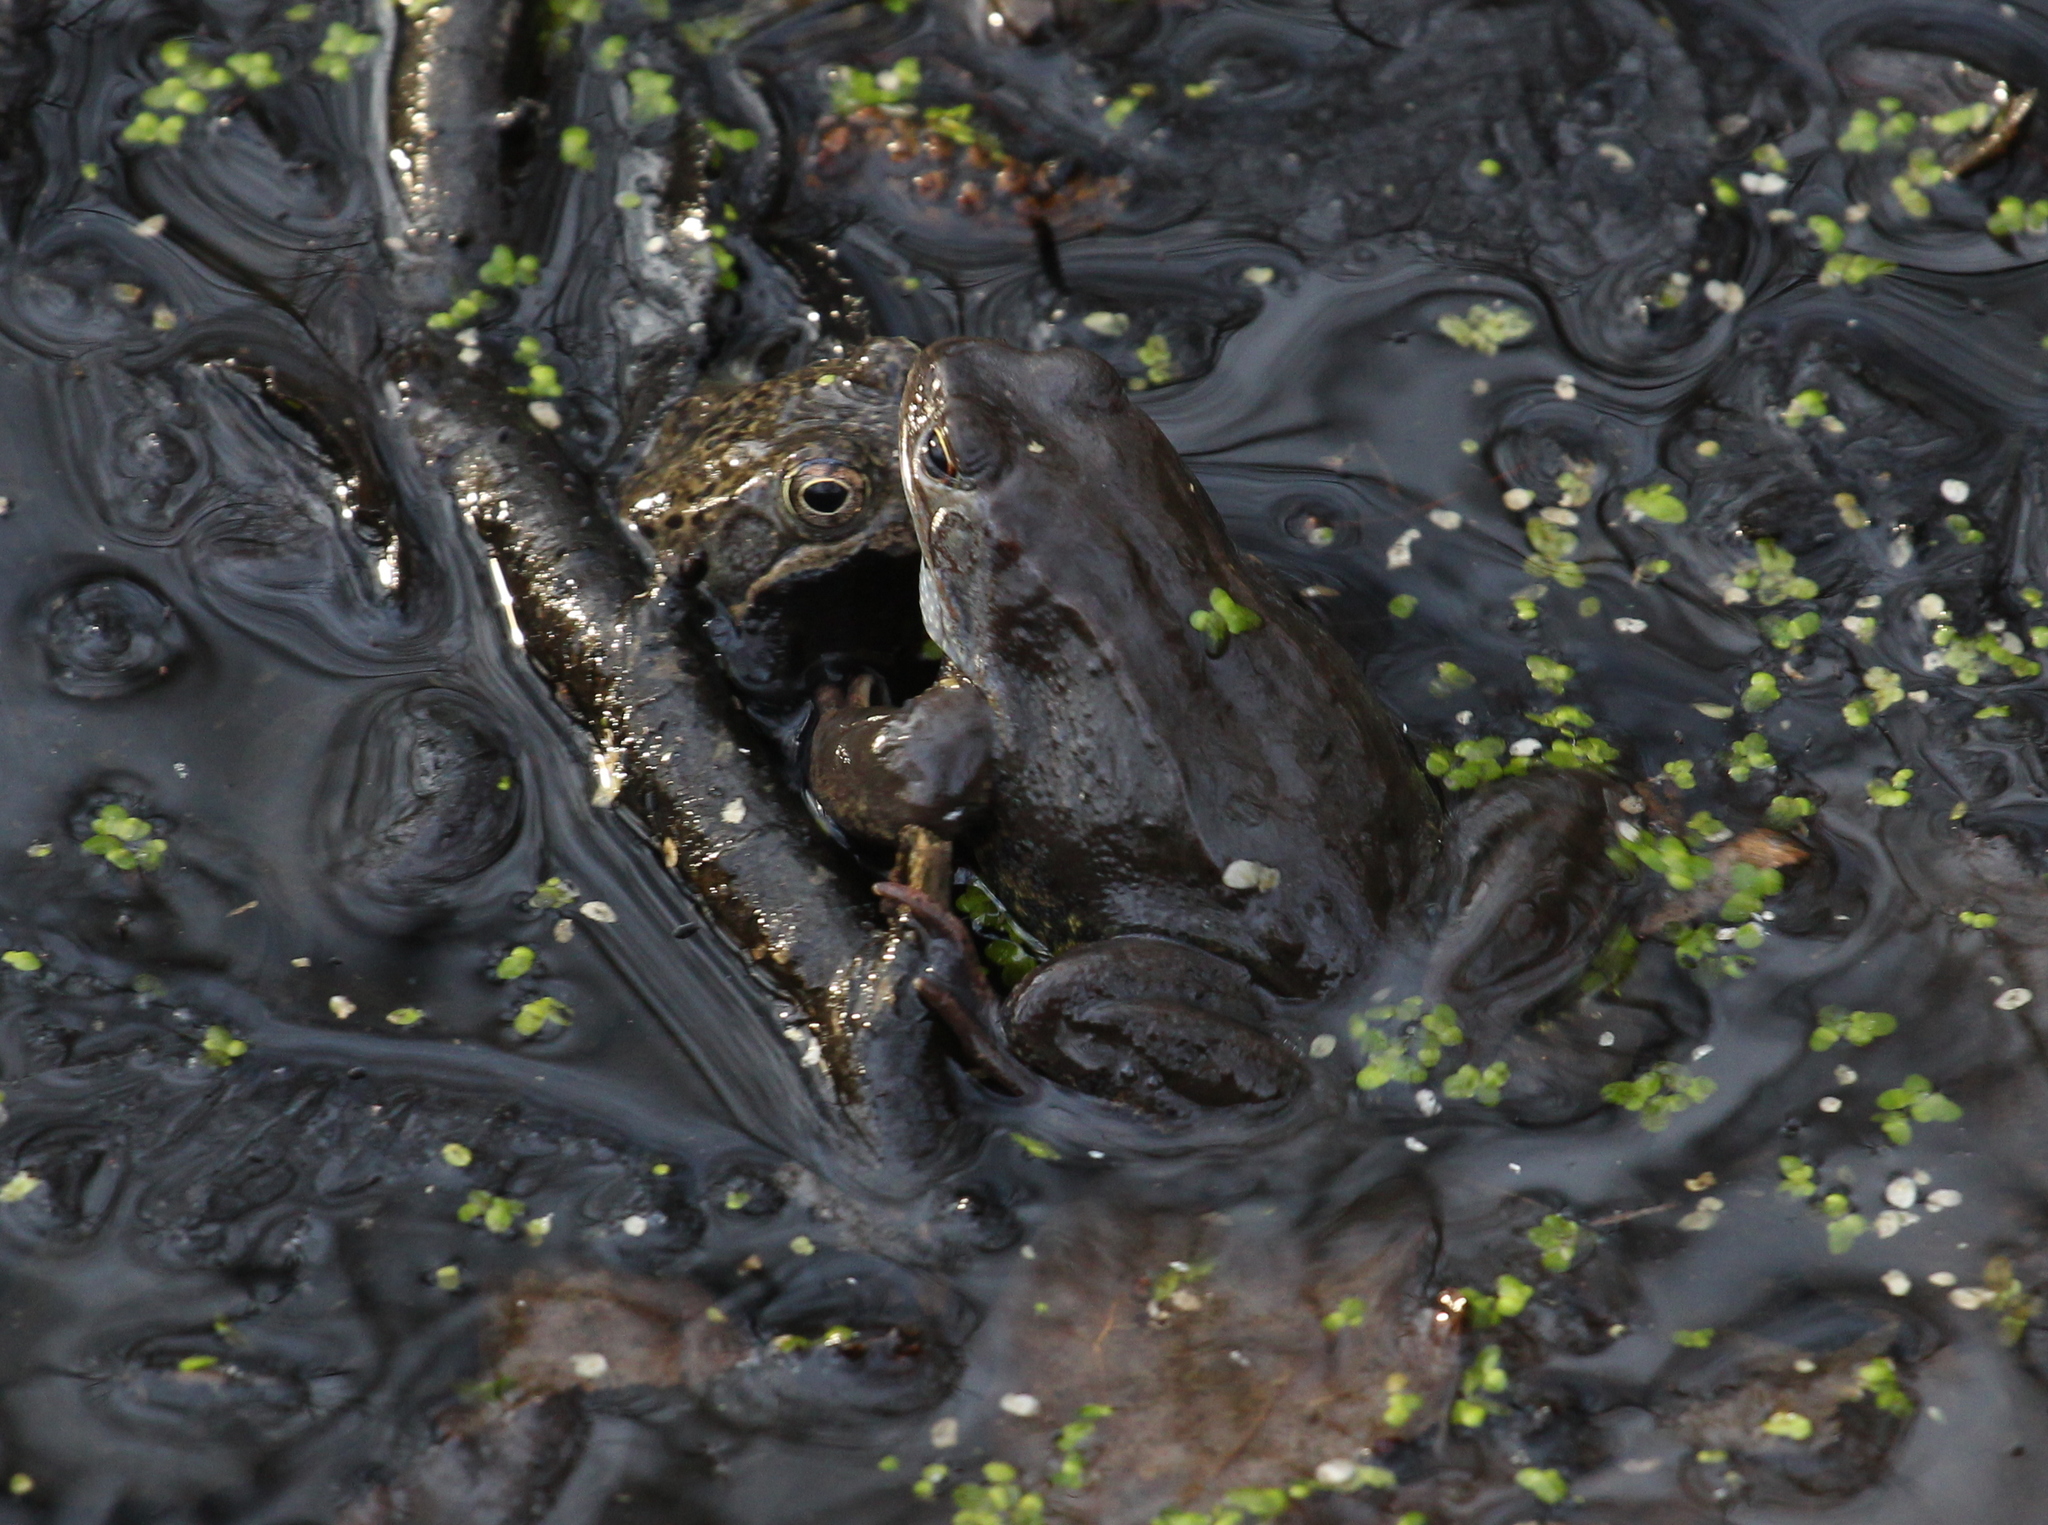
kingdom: Animalia
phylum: Chordata
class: Amphibia
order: Anura
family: Ranidae
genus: Rana
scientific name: Rana temporaria
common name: Common frog
